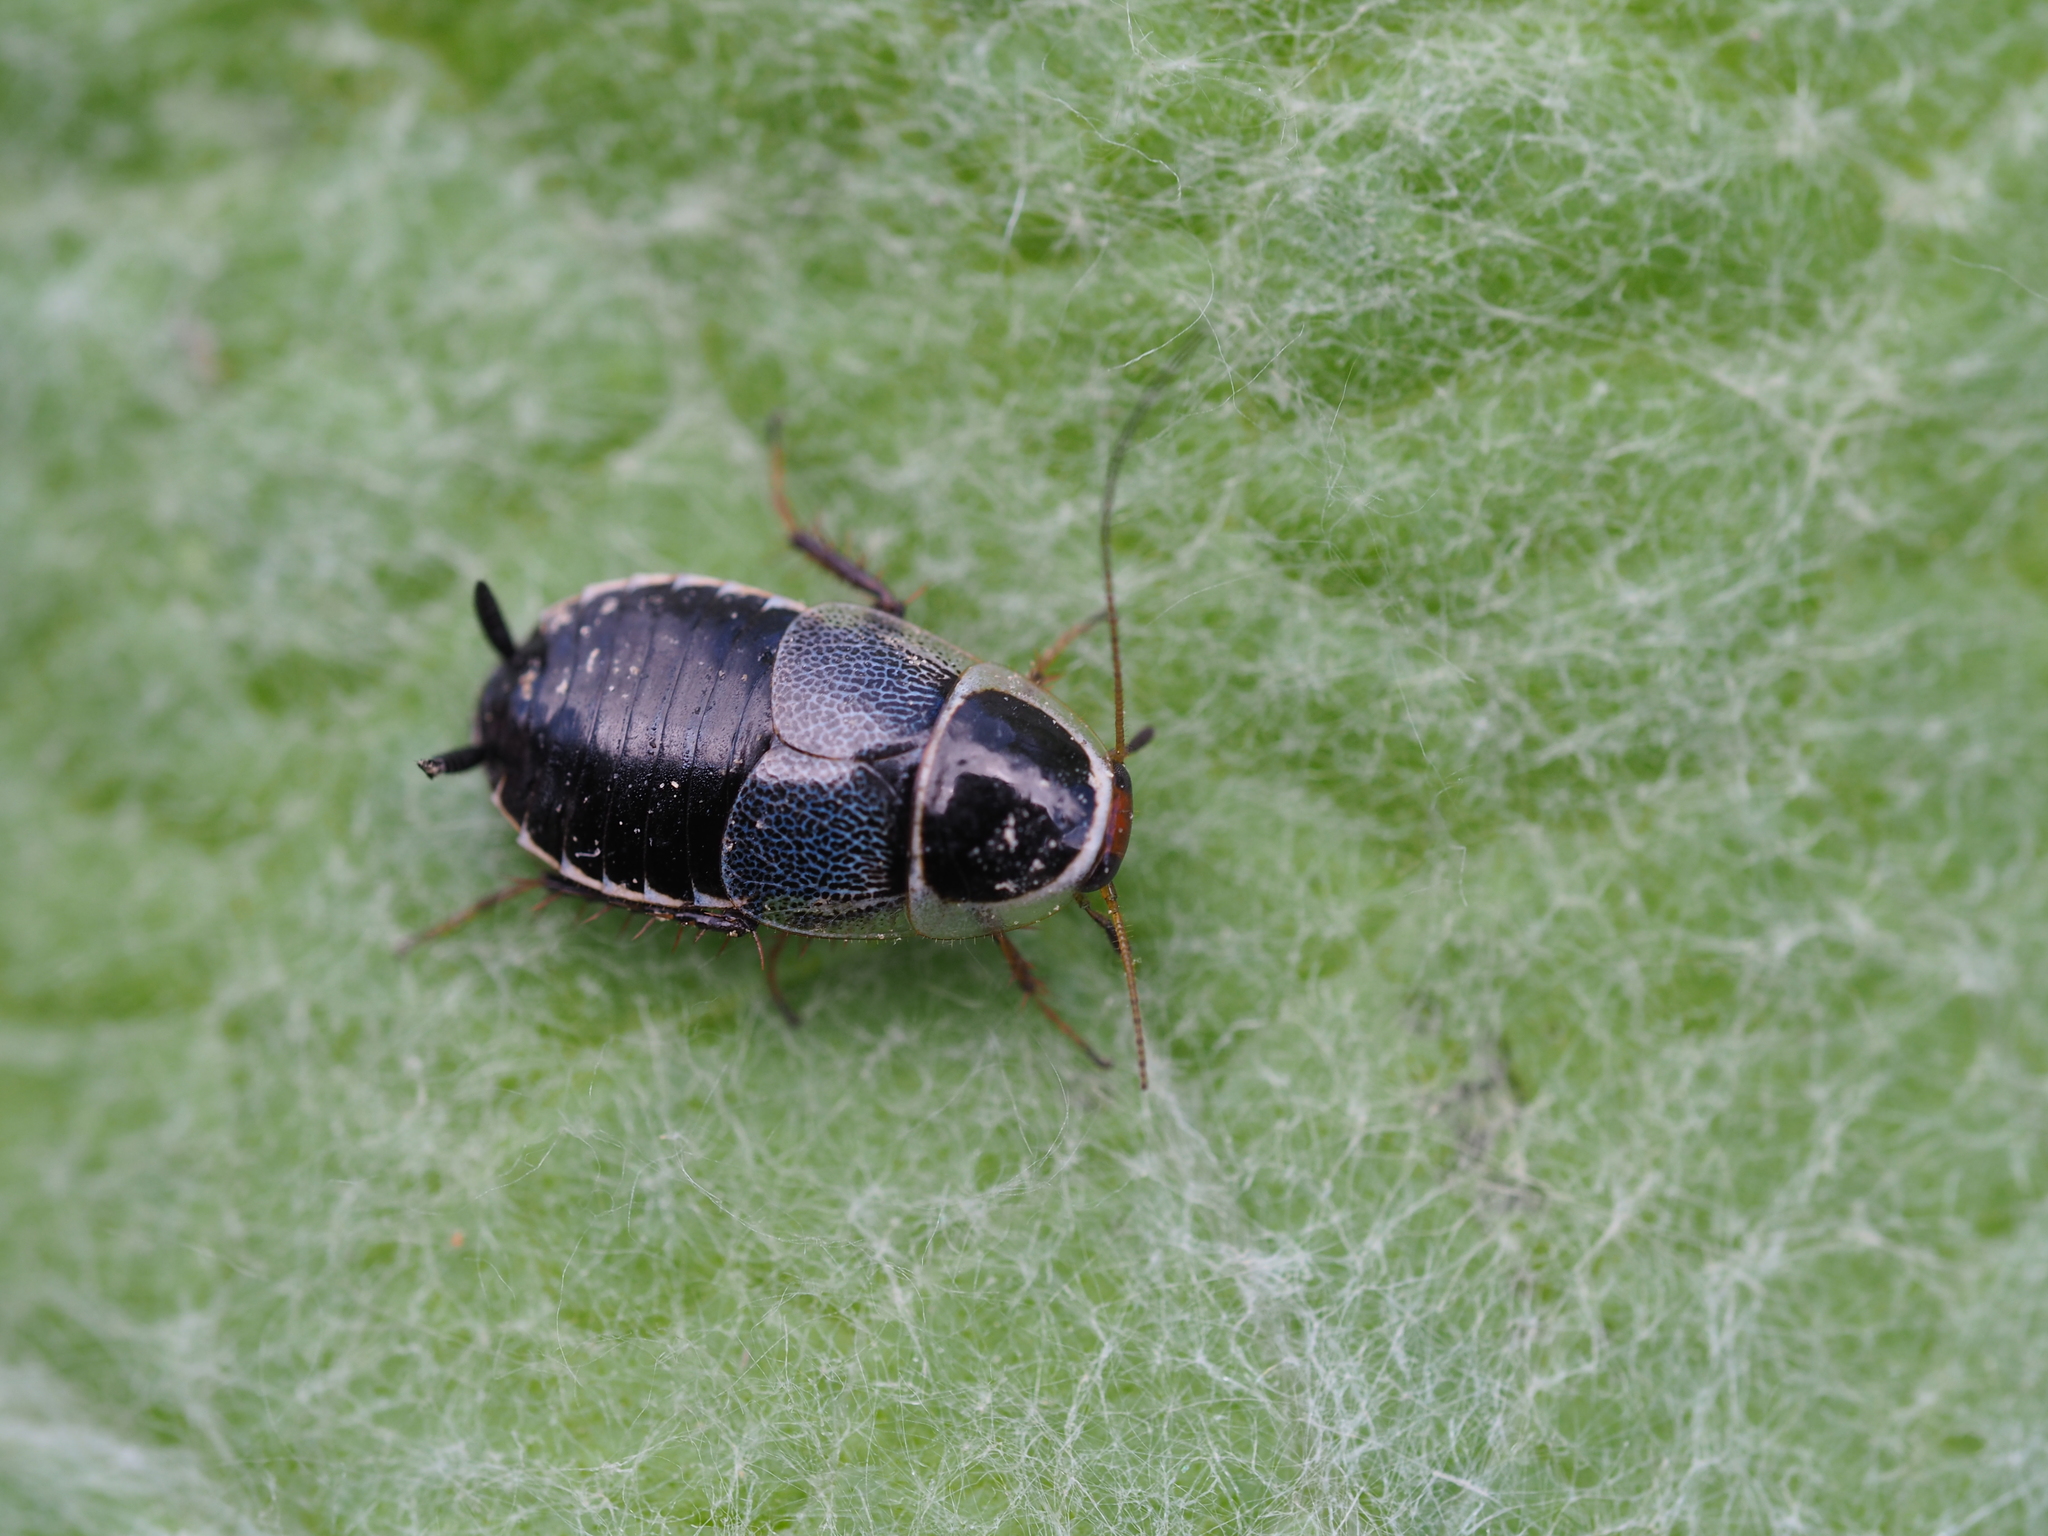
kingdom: Animalia
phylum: Arthropoda
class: Insecta
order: Blattodea
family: Ectobiidae
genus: Phyllodromica
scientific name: Phyllodromica megerlei
